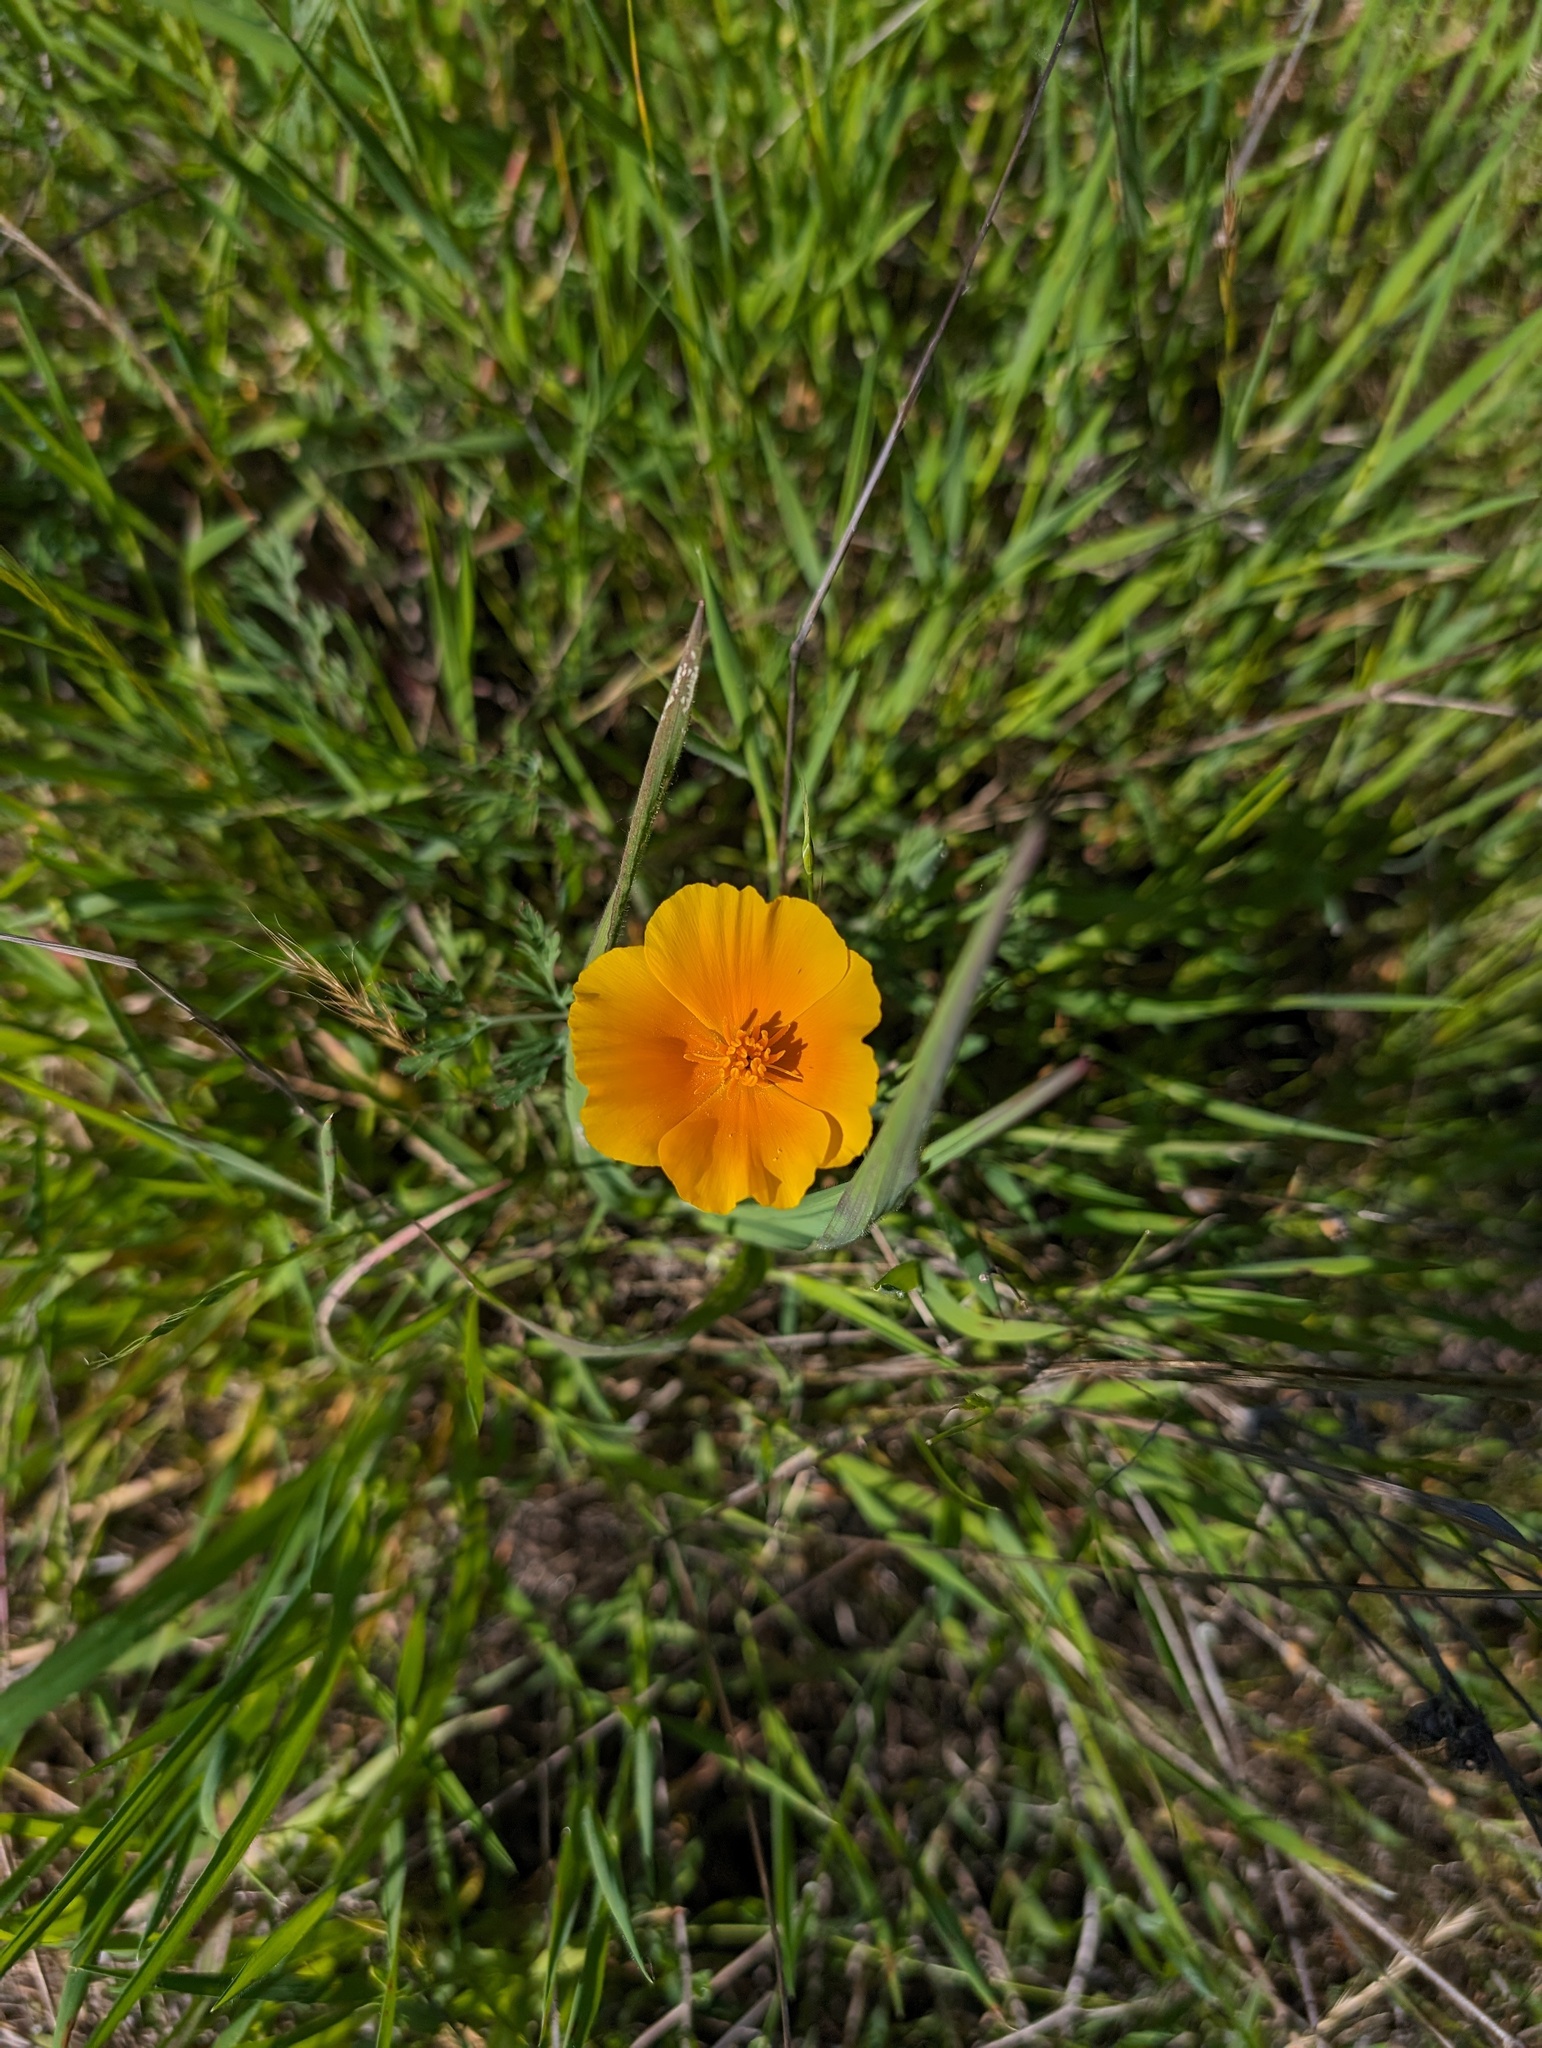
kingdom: Plantae
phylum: Tracheophyta
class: Magnoliopsida
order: Ranunculales
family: Papaveraceae
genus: Eschscholzia
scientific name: Eschscholzia californica
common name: California poppy
